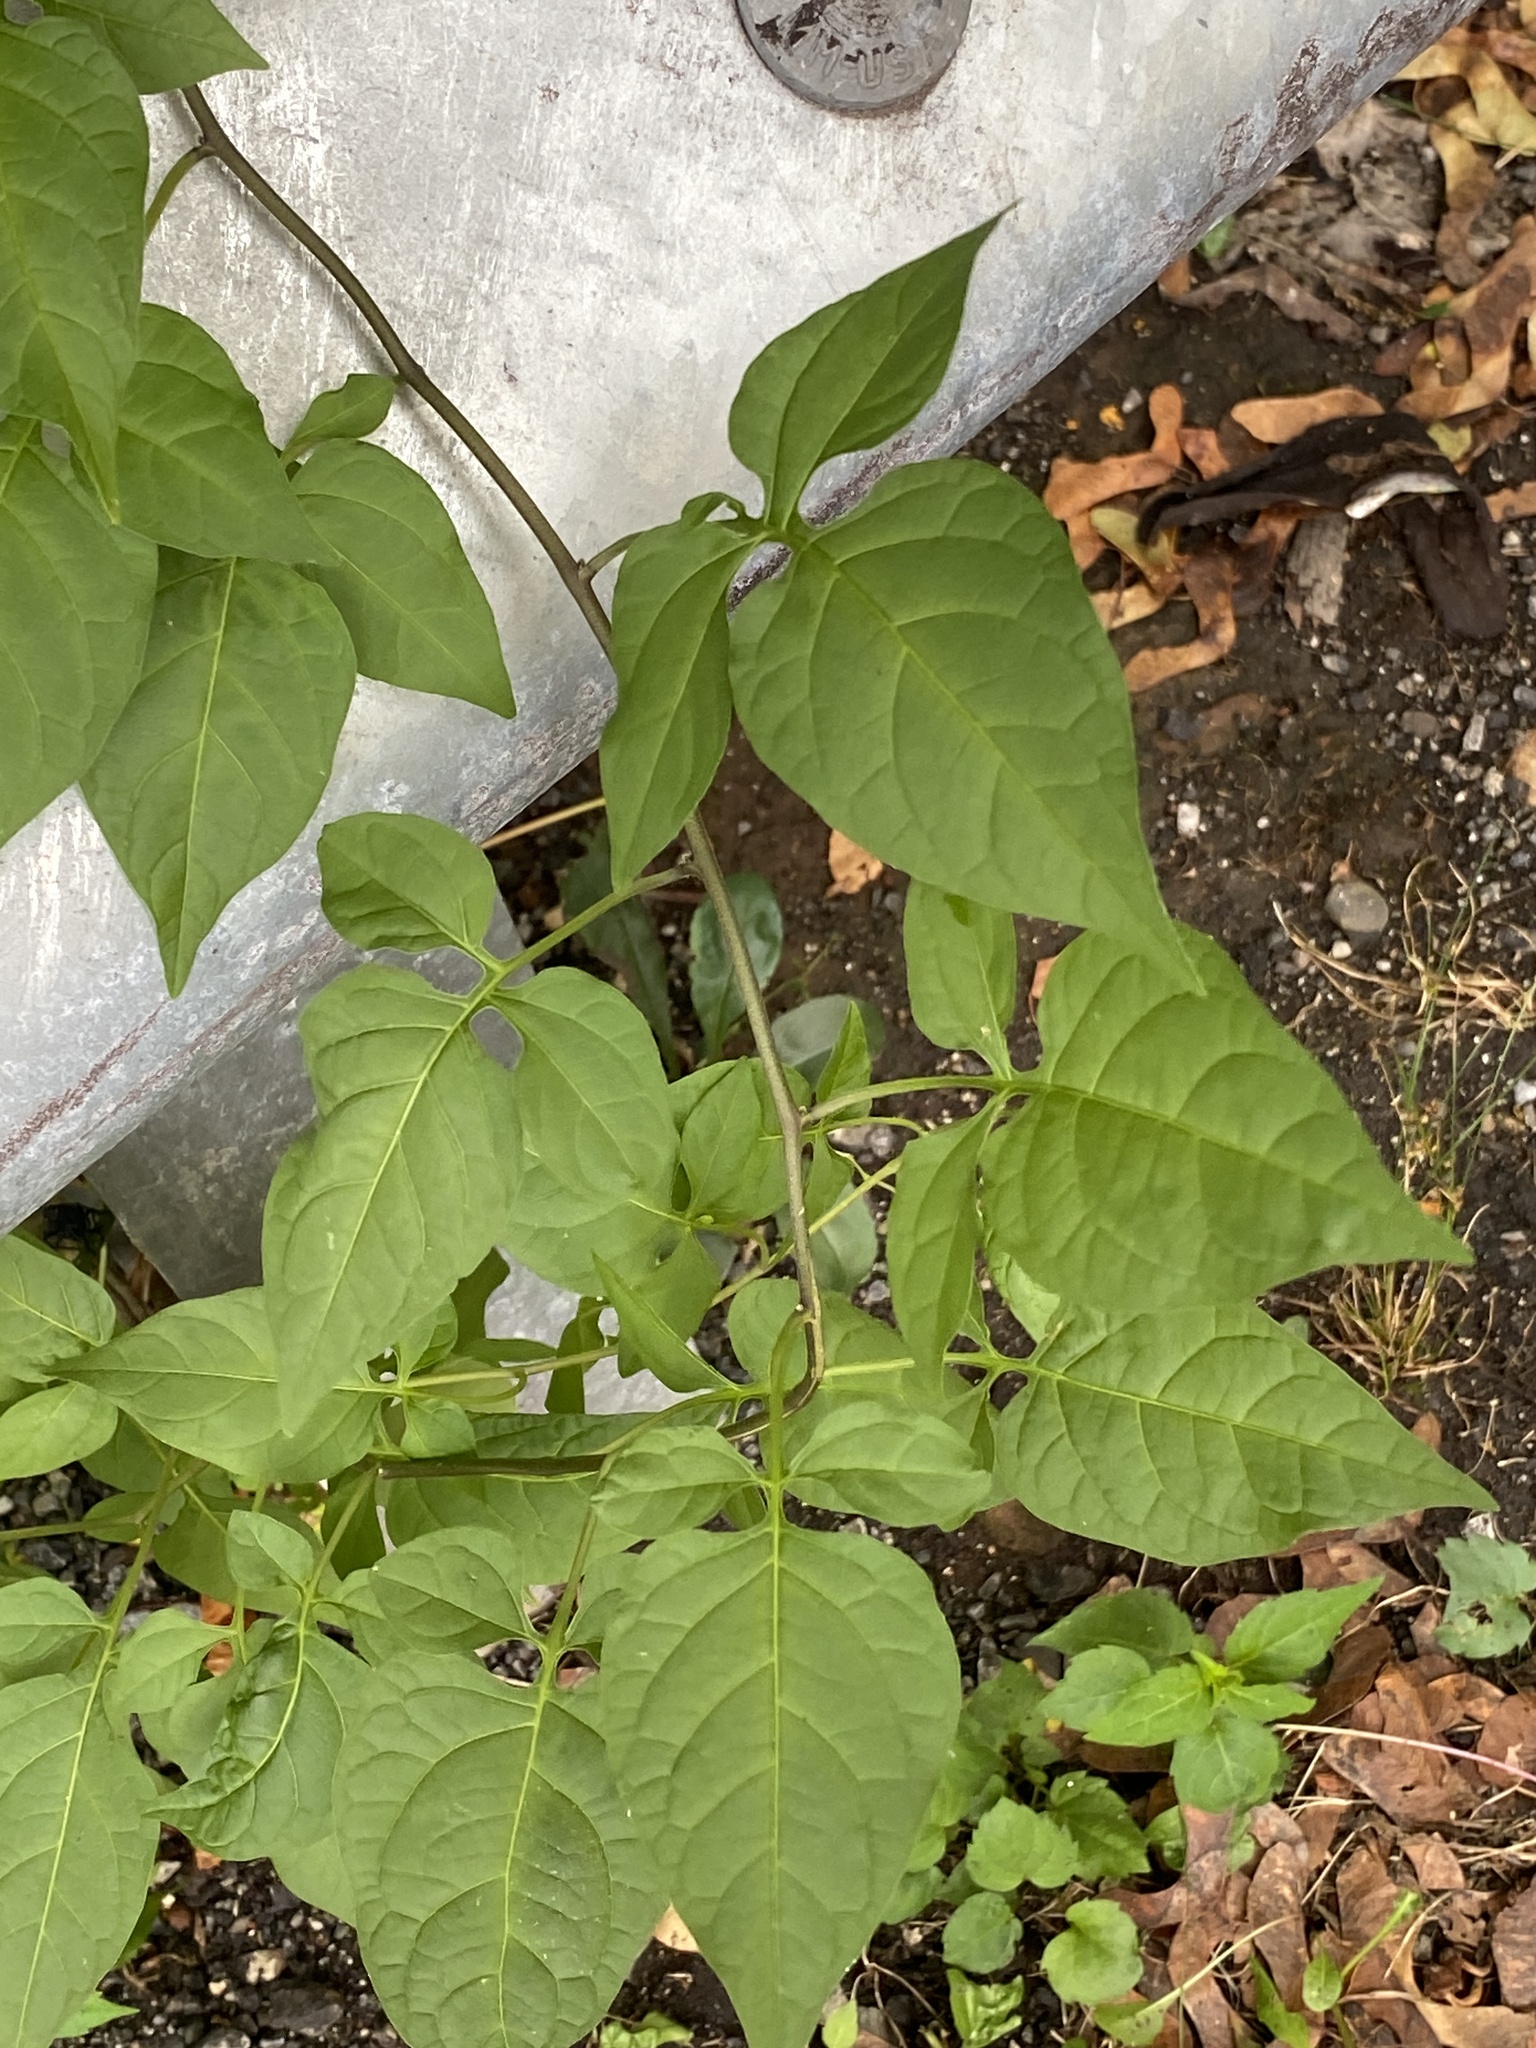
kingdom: Plantae
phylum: Tracheophyta
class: Magnoliopsida
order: Solanales
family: Solanaceae
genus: Solanum
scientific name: Solanum dulcamara
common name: Climbing nightshade
